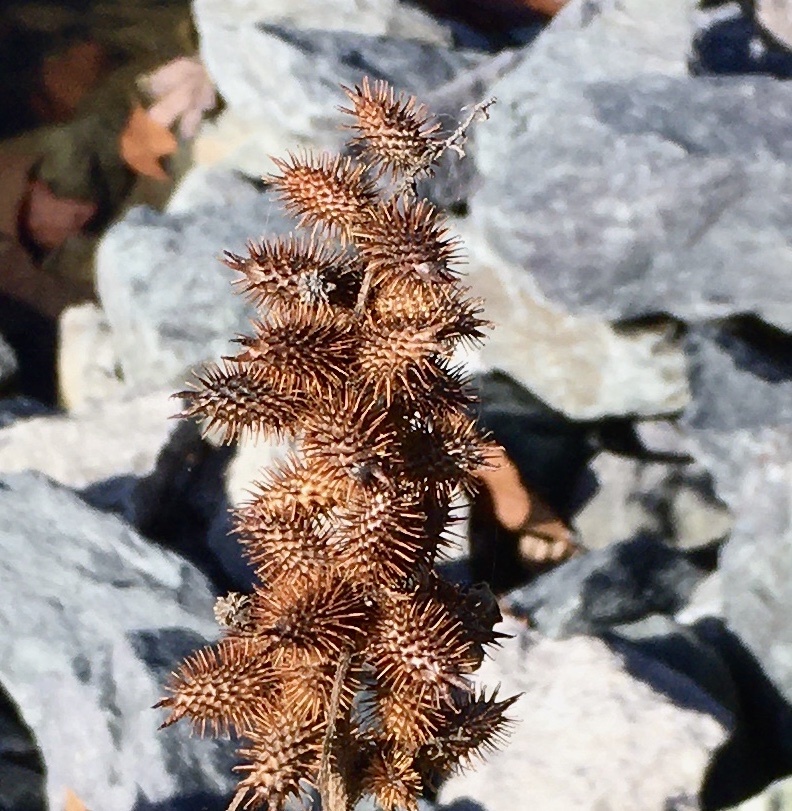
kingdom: Plantae
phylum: Tracheophyta
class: Magnoliopsida
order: Asterales
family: Asteraceae
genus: Xanthium
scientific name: Xanthium strumarium
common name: Rough cocklebur
